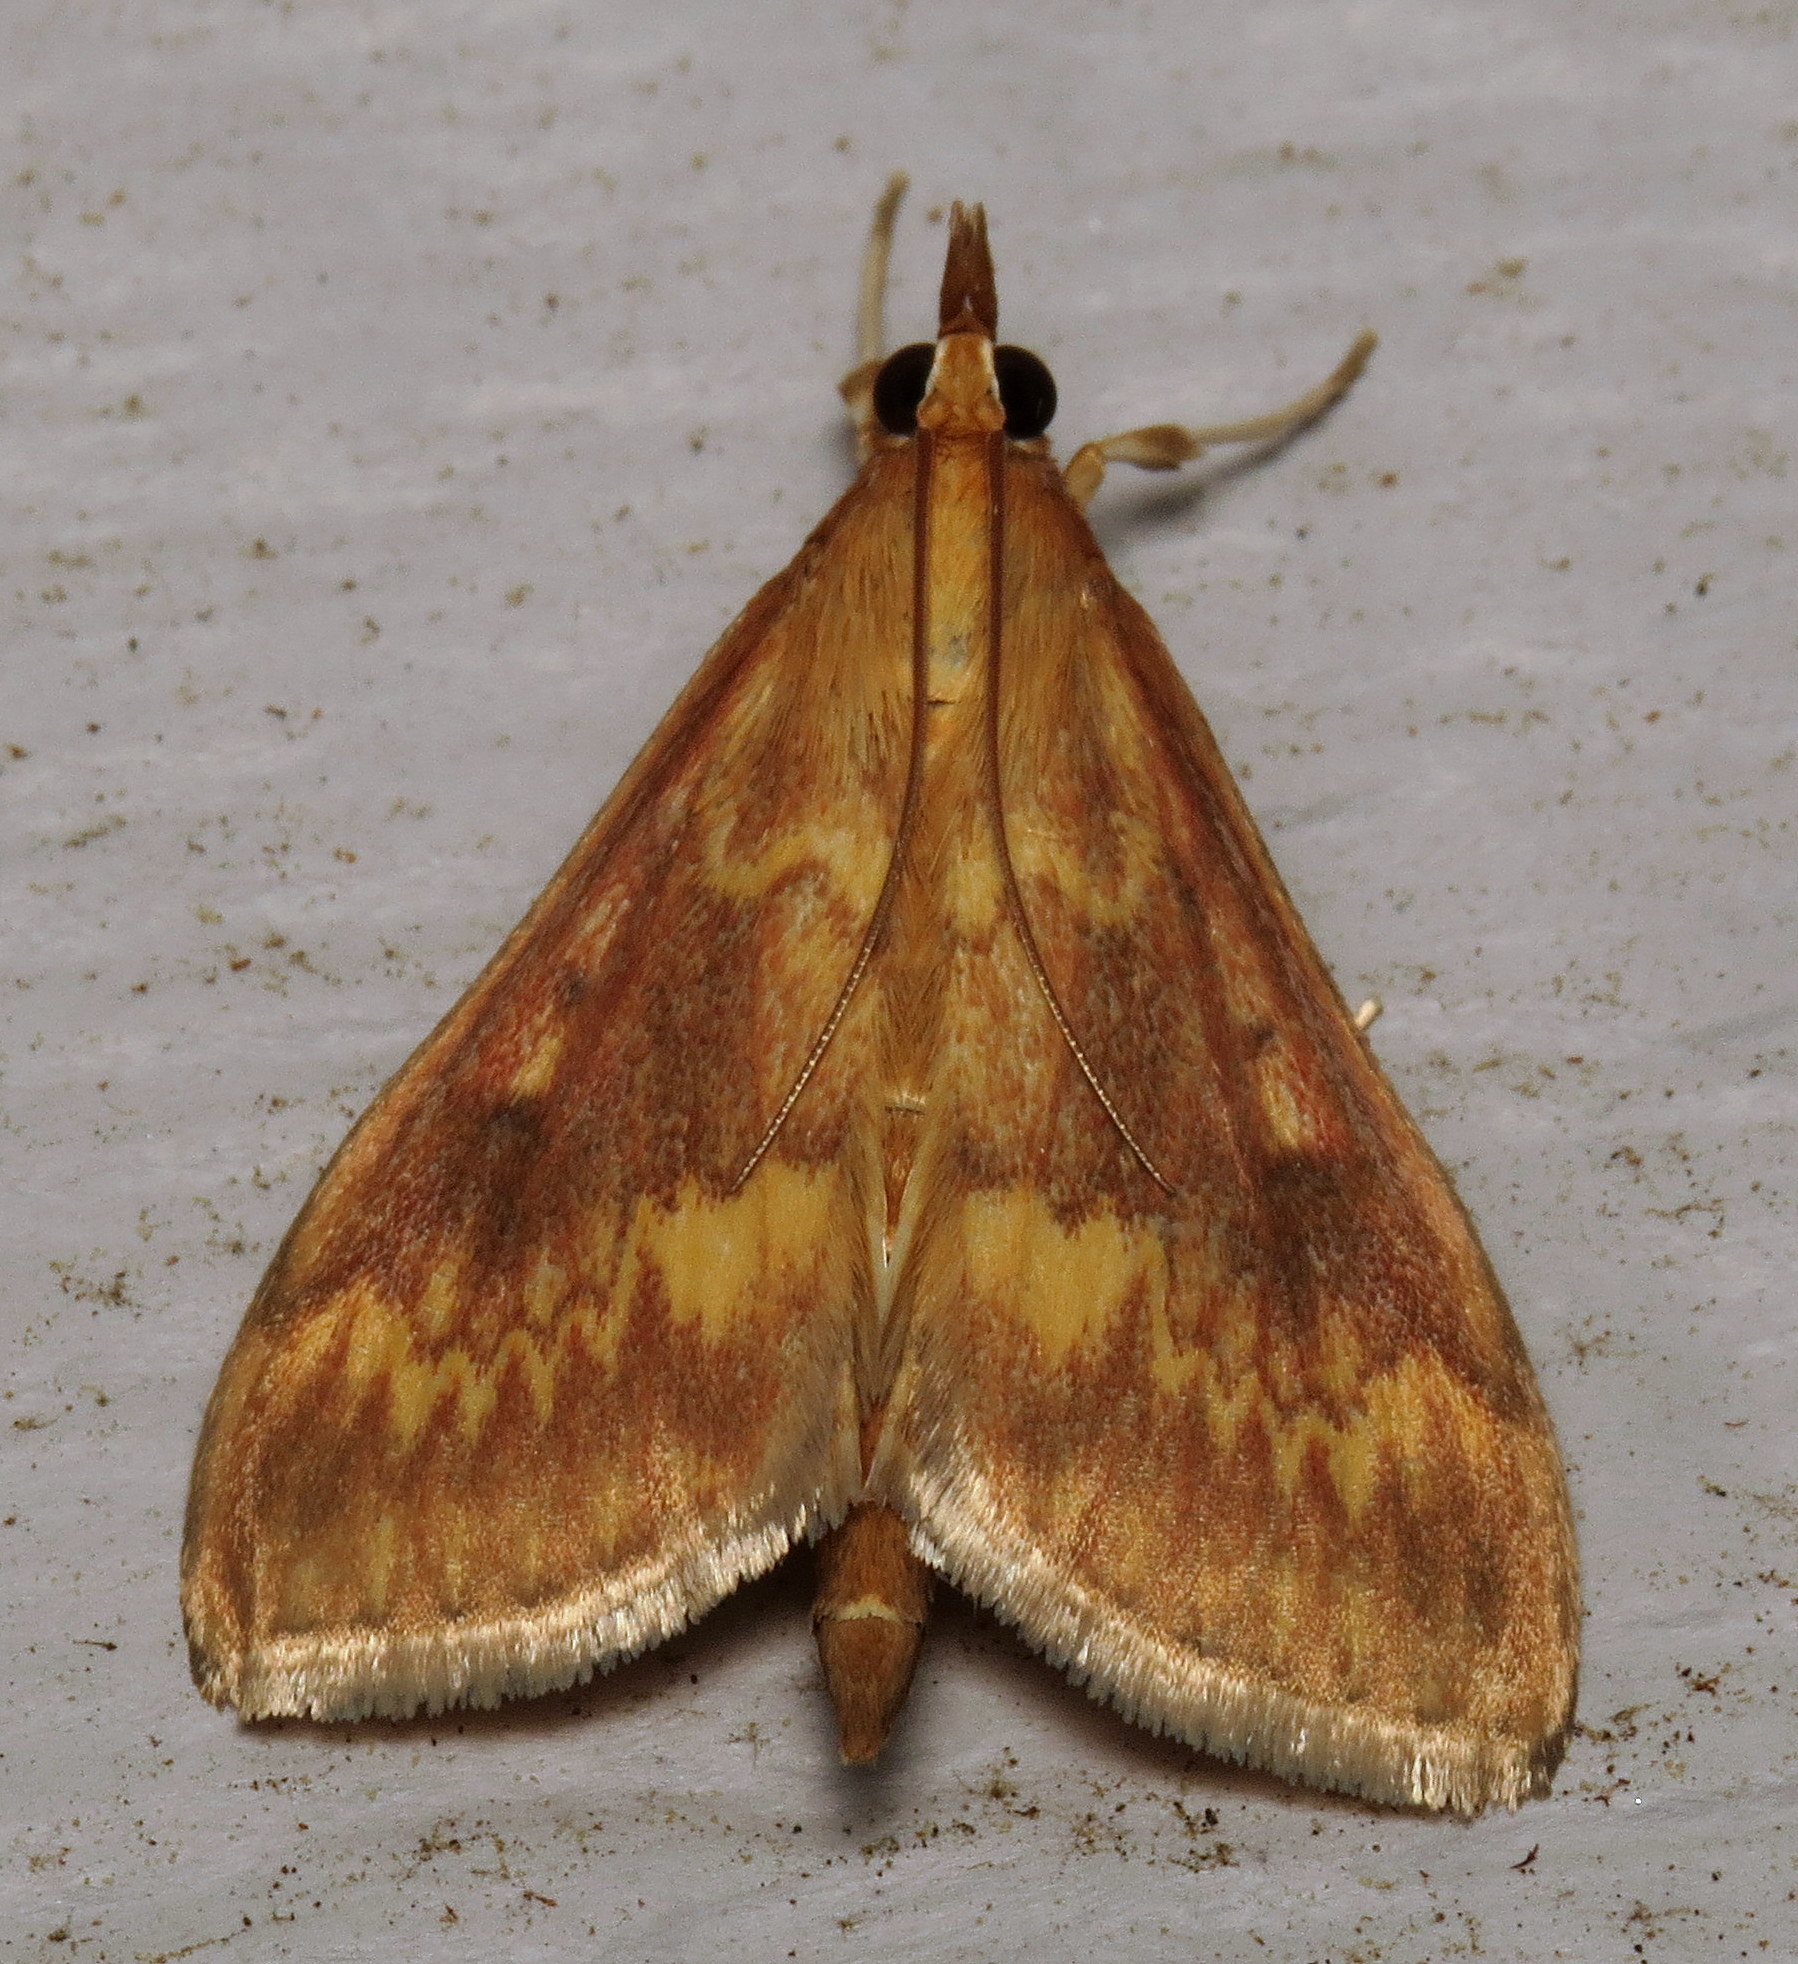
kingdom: Animalia
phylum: Arthropoda
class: Insecta
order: Lepidoptera
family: Crambidae
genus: Ostrinia
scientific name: Ostrinia nubilalis
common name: European corn borer
